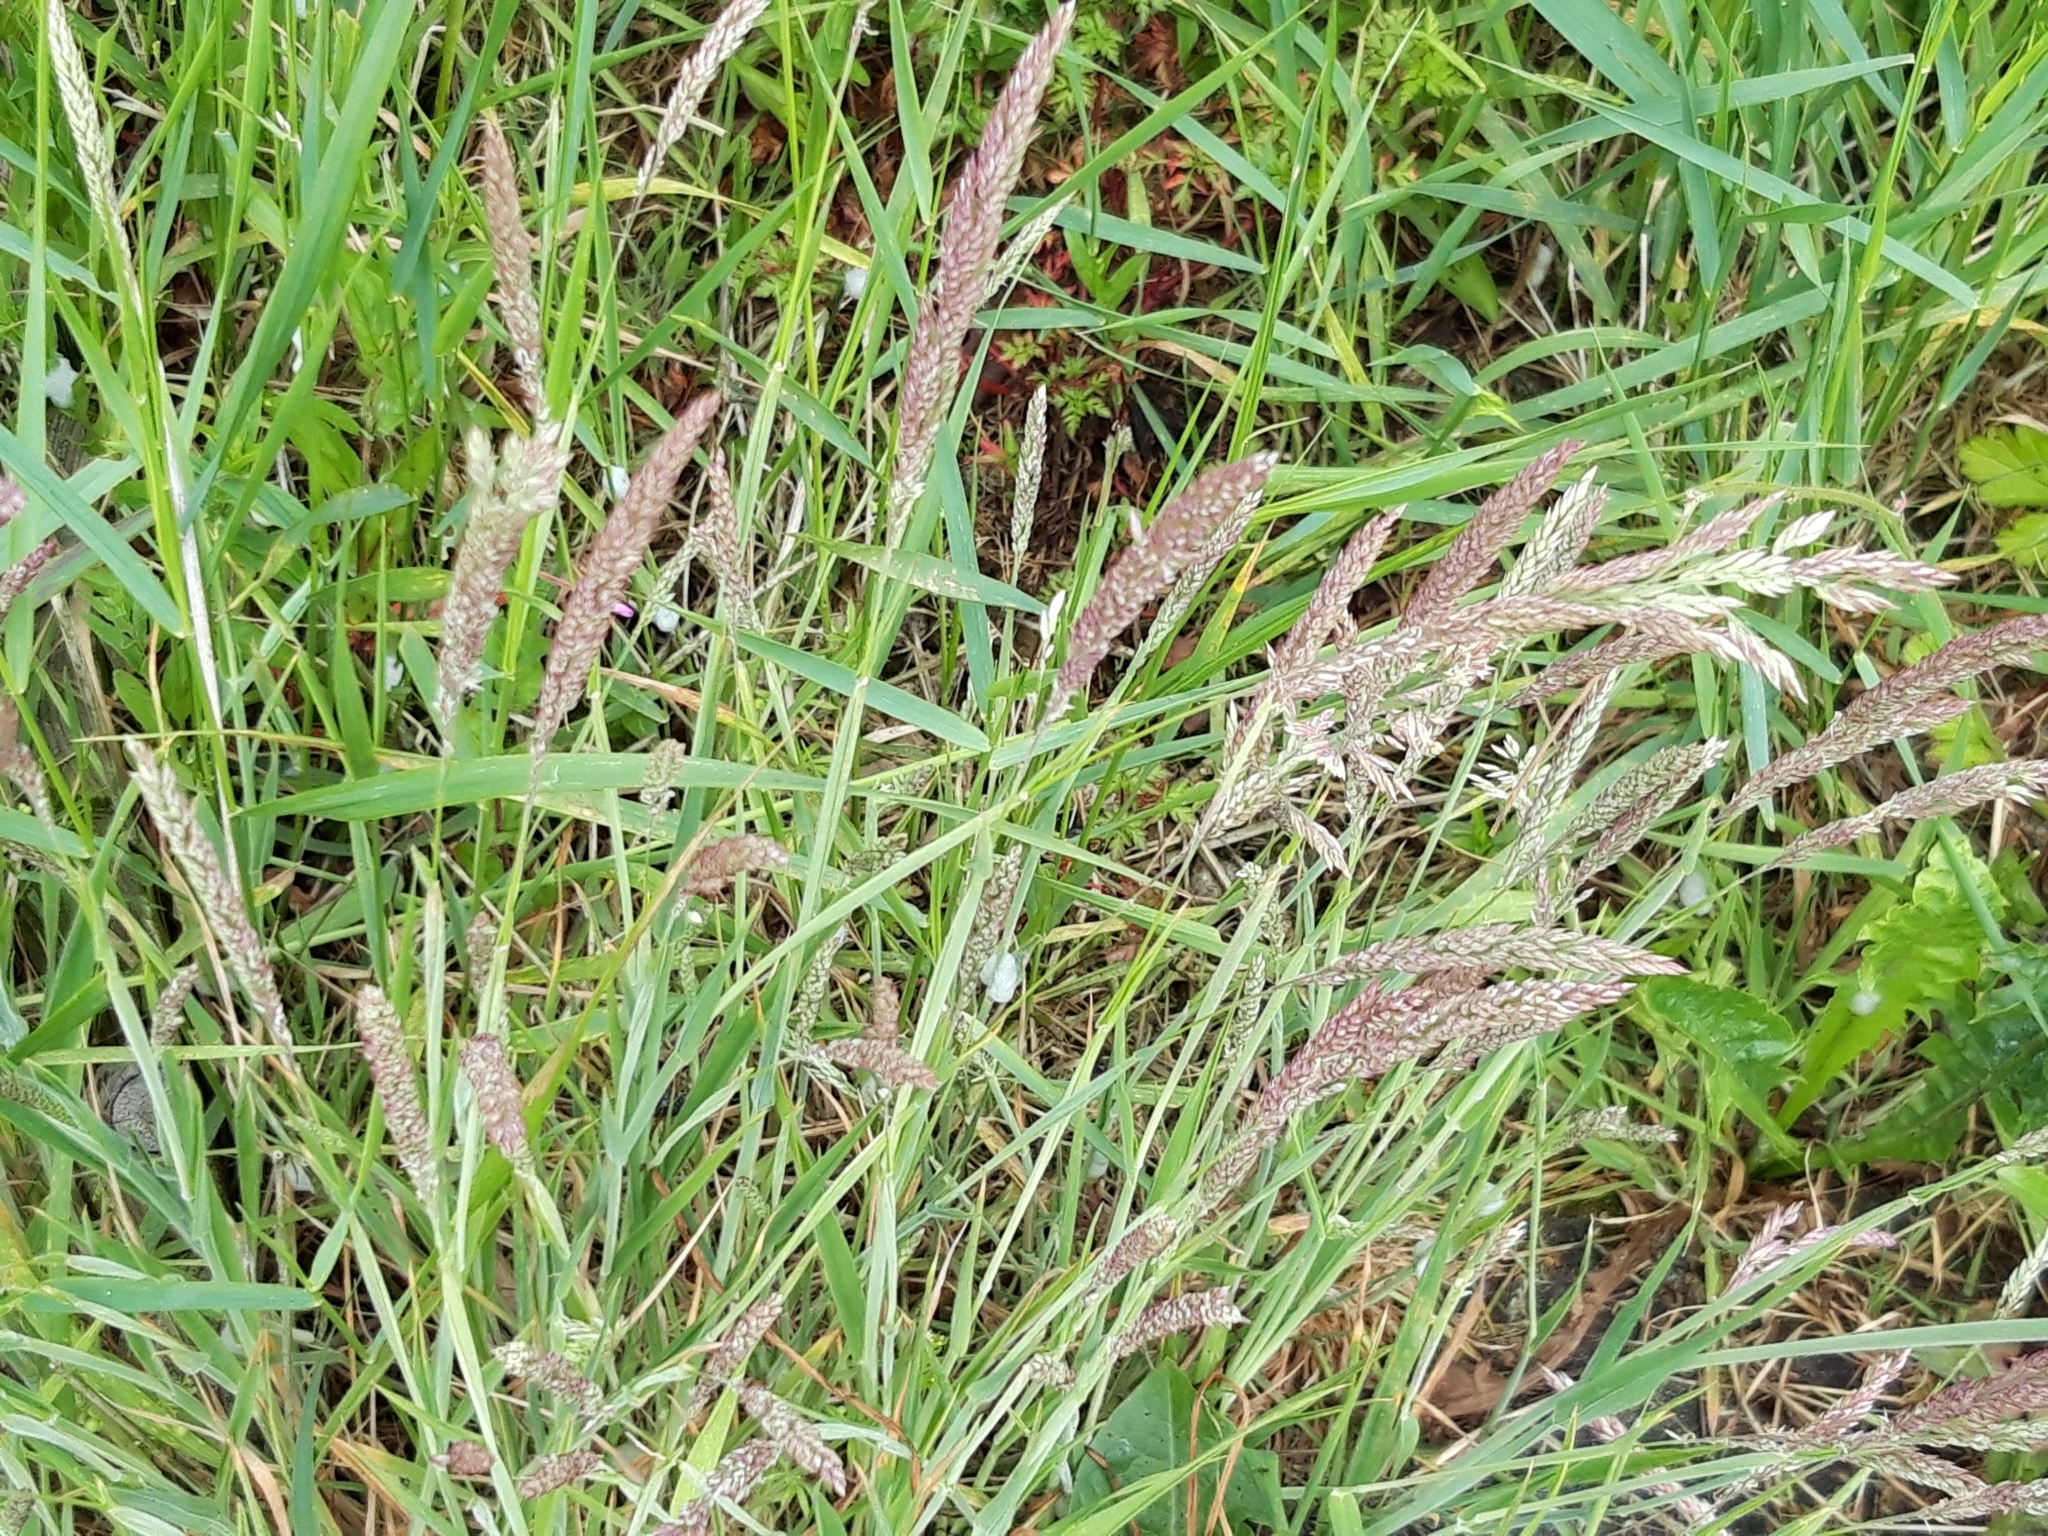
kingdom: Plantae
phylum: Tracheophyta
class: Liliopsida
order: Poales
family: Poaceae
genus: Holcus
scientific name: Holcus lanatus
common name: Yorkshire-fog
